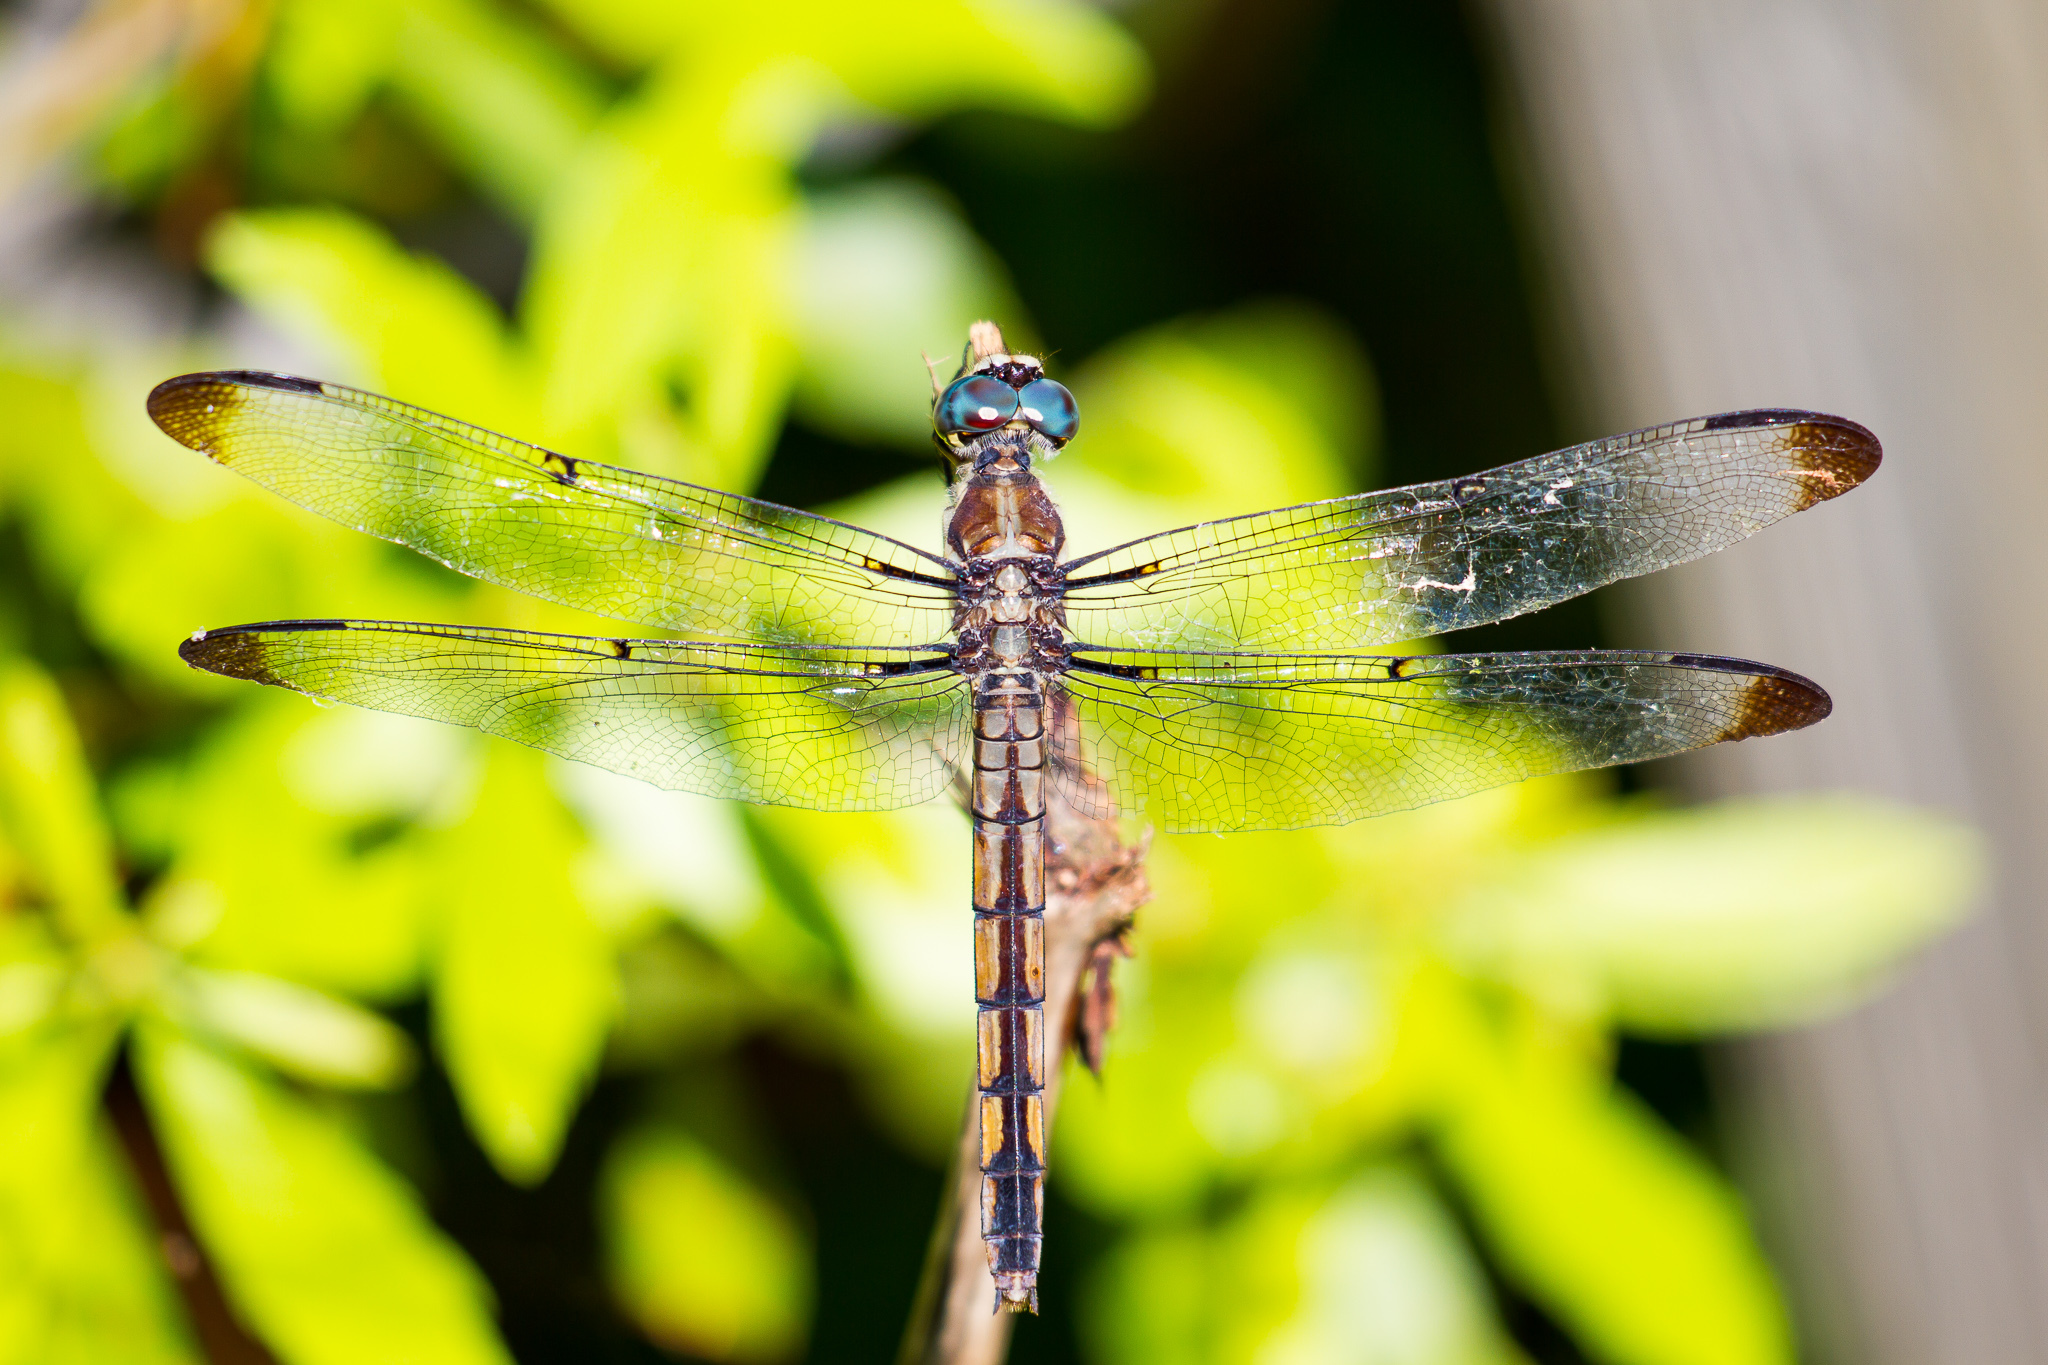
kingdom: Animalia
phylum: Arthropoda
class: Insecta
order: Odonata
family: Libellulidae
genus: Libellula
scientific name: Libellula vibrans
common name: Great blue skimmer
